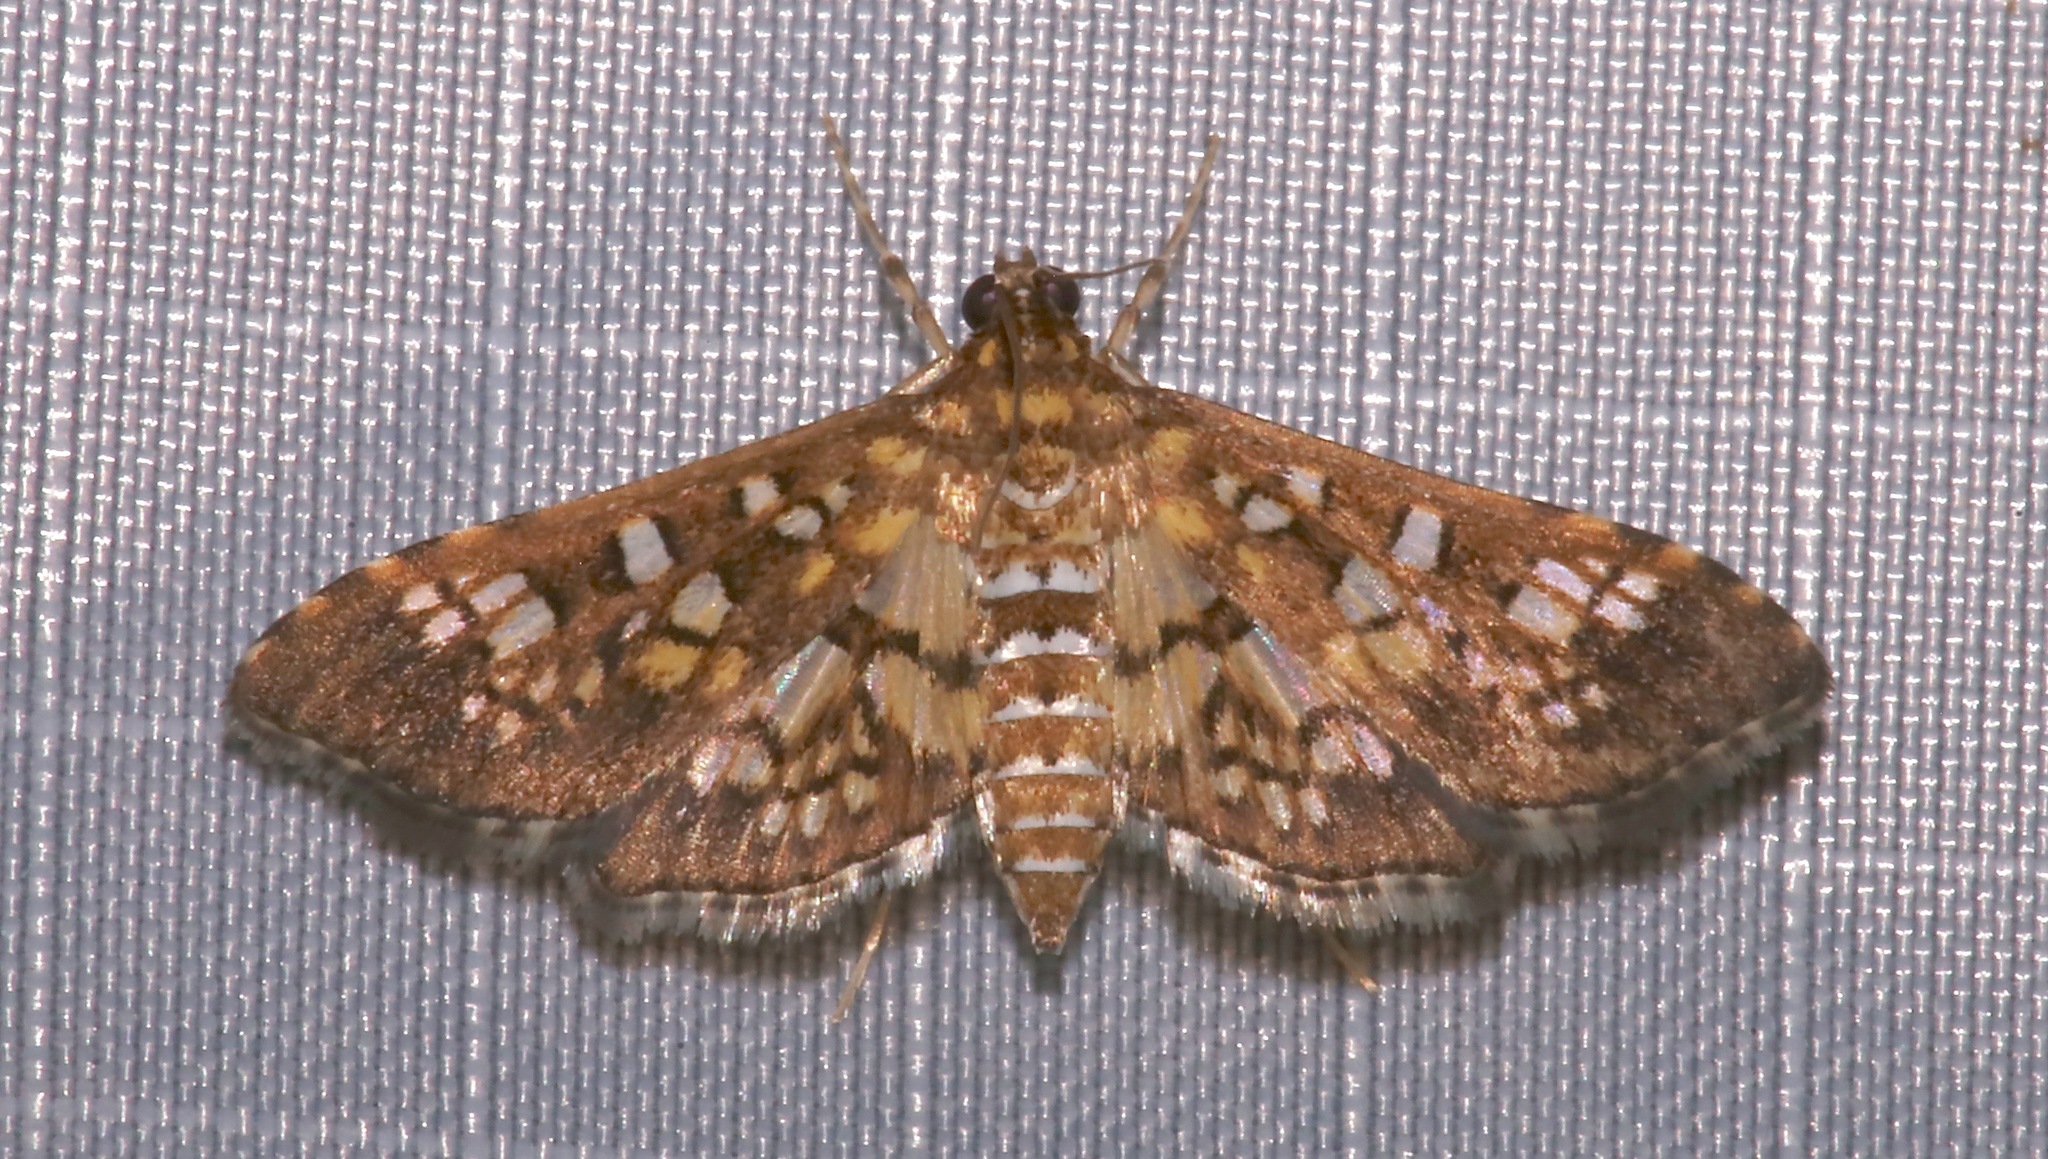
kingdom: Animalia
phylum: Arthropoda
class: Insecta
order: Lepidoptera
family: Crambidae
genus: Samea
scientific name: Samea ecclesialis
